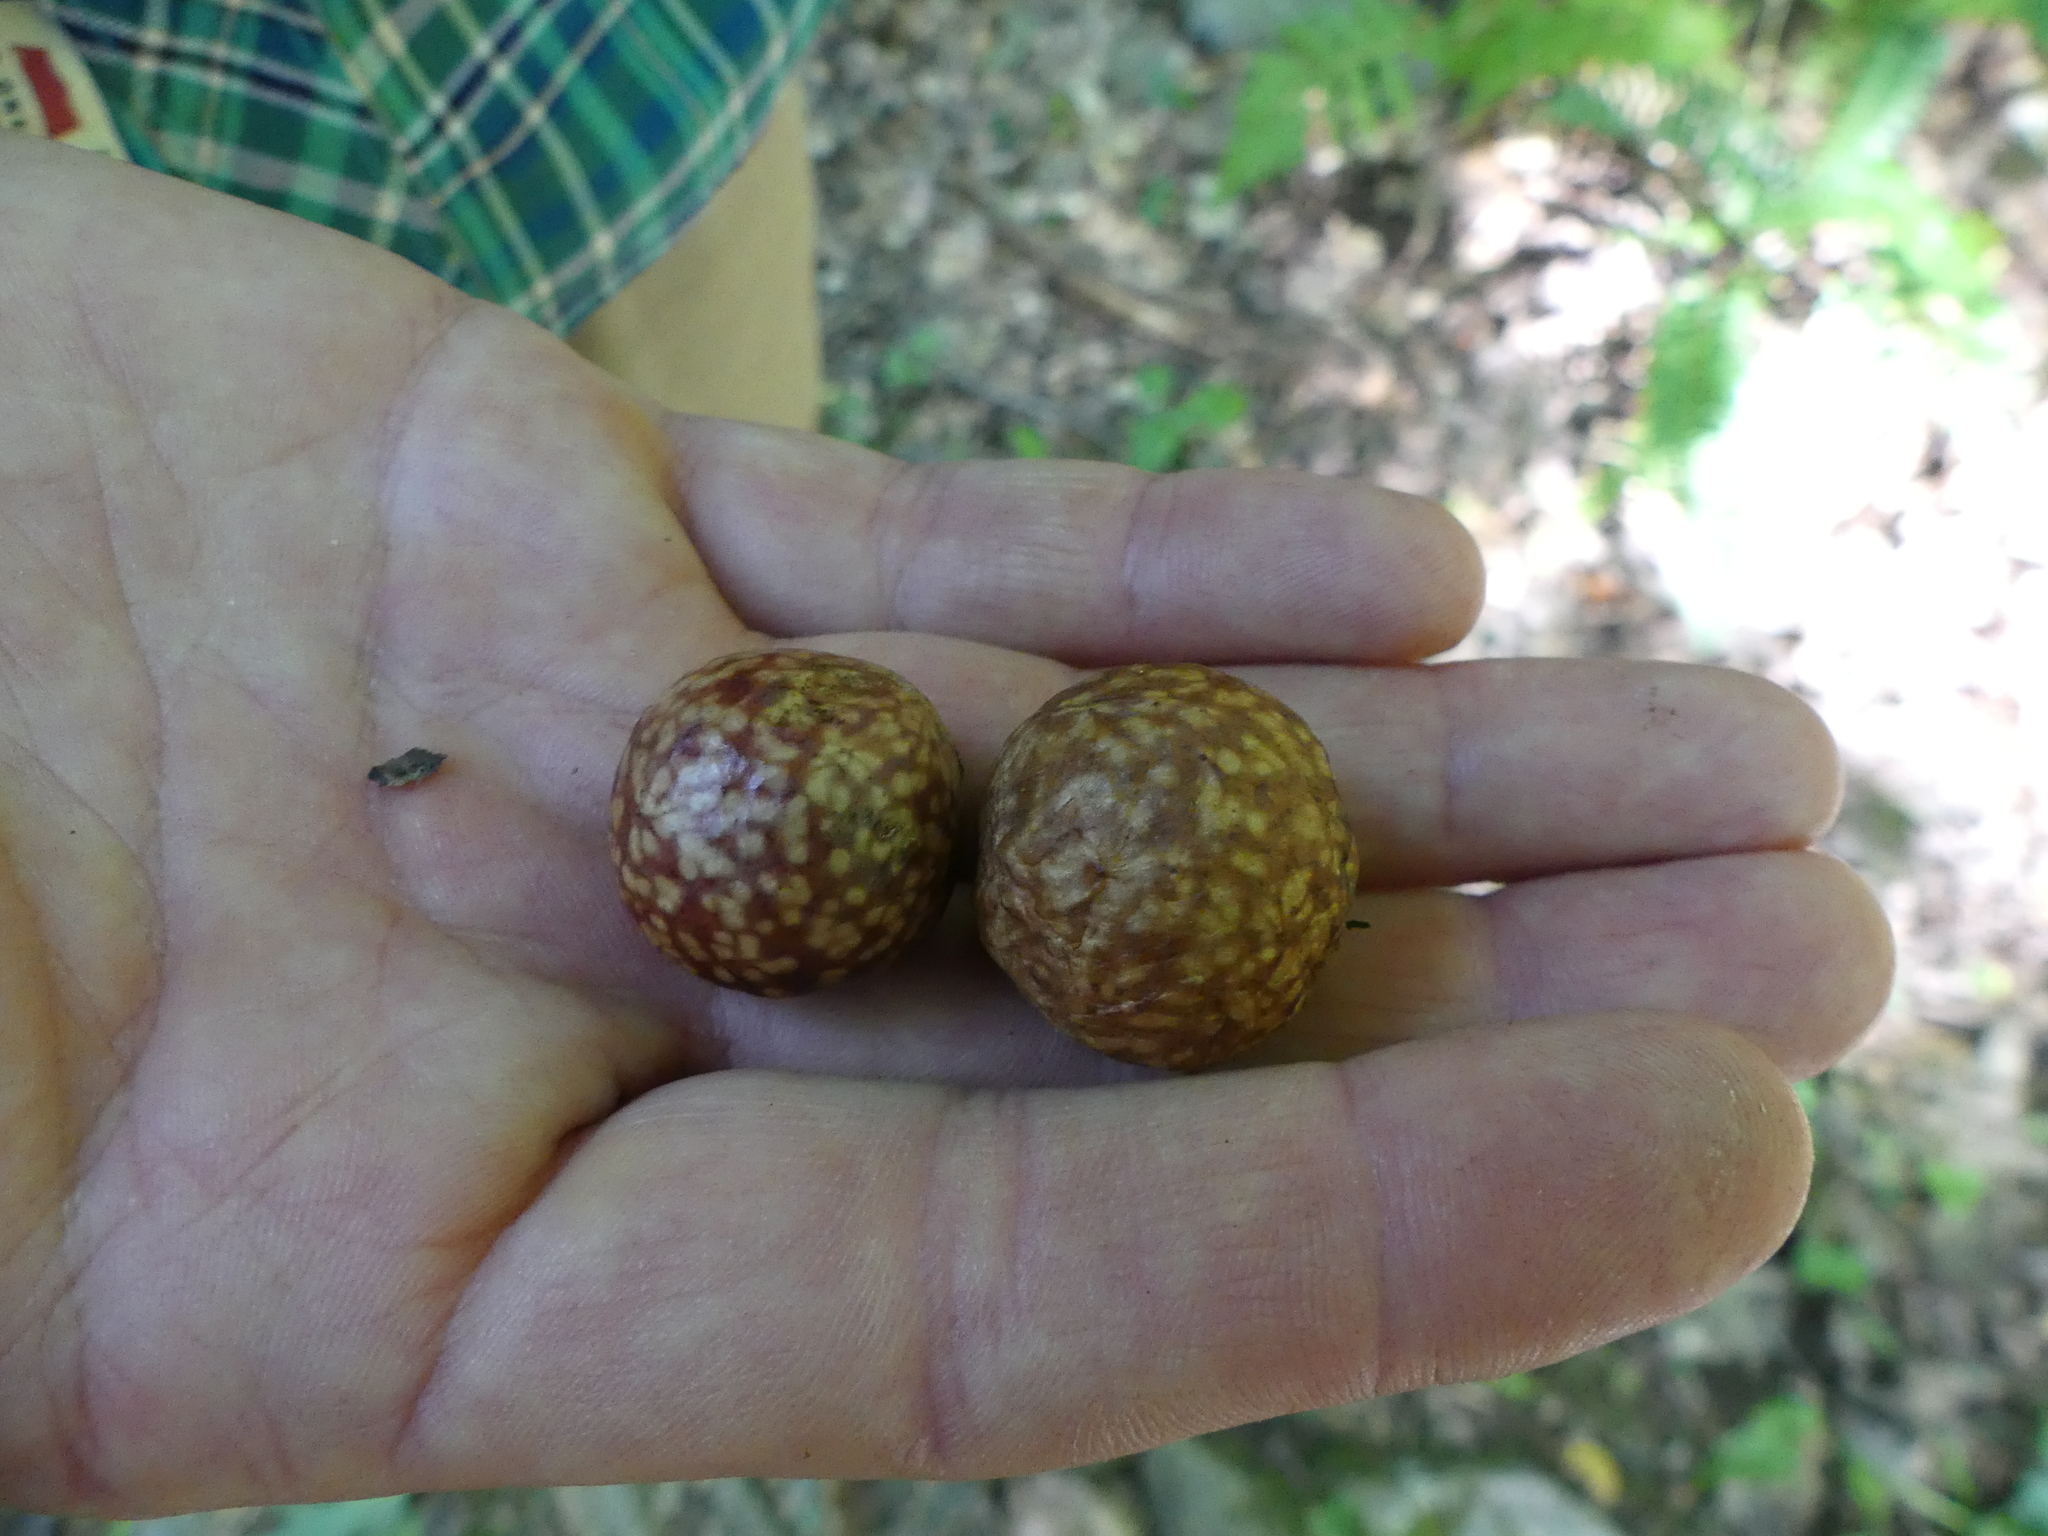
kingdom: Animalia
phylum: Arthropoda
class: Insecta
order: Hymenoptera
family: Cynipidae
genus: Amphibolips
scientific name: Amphibolips
